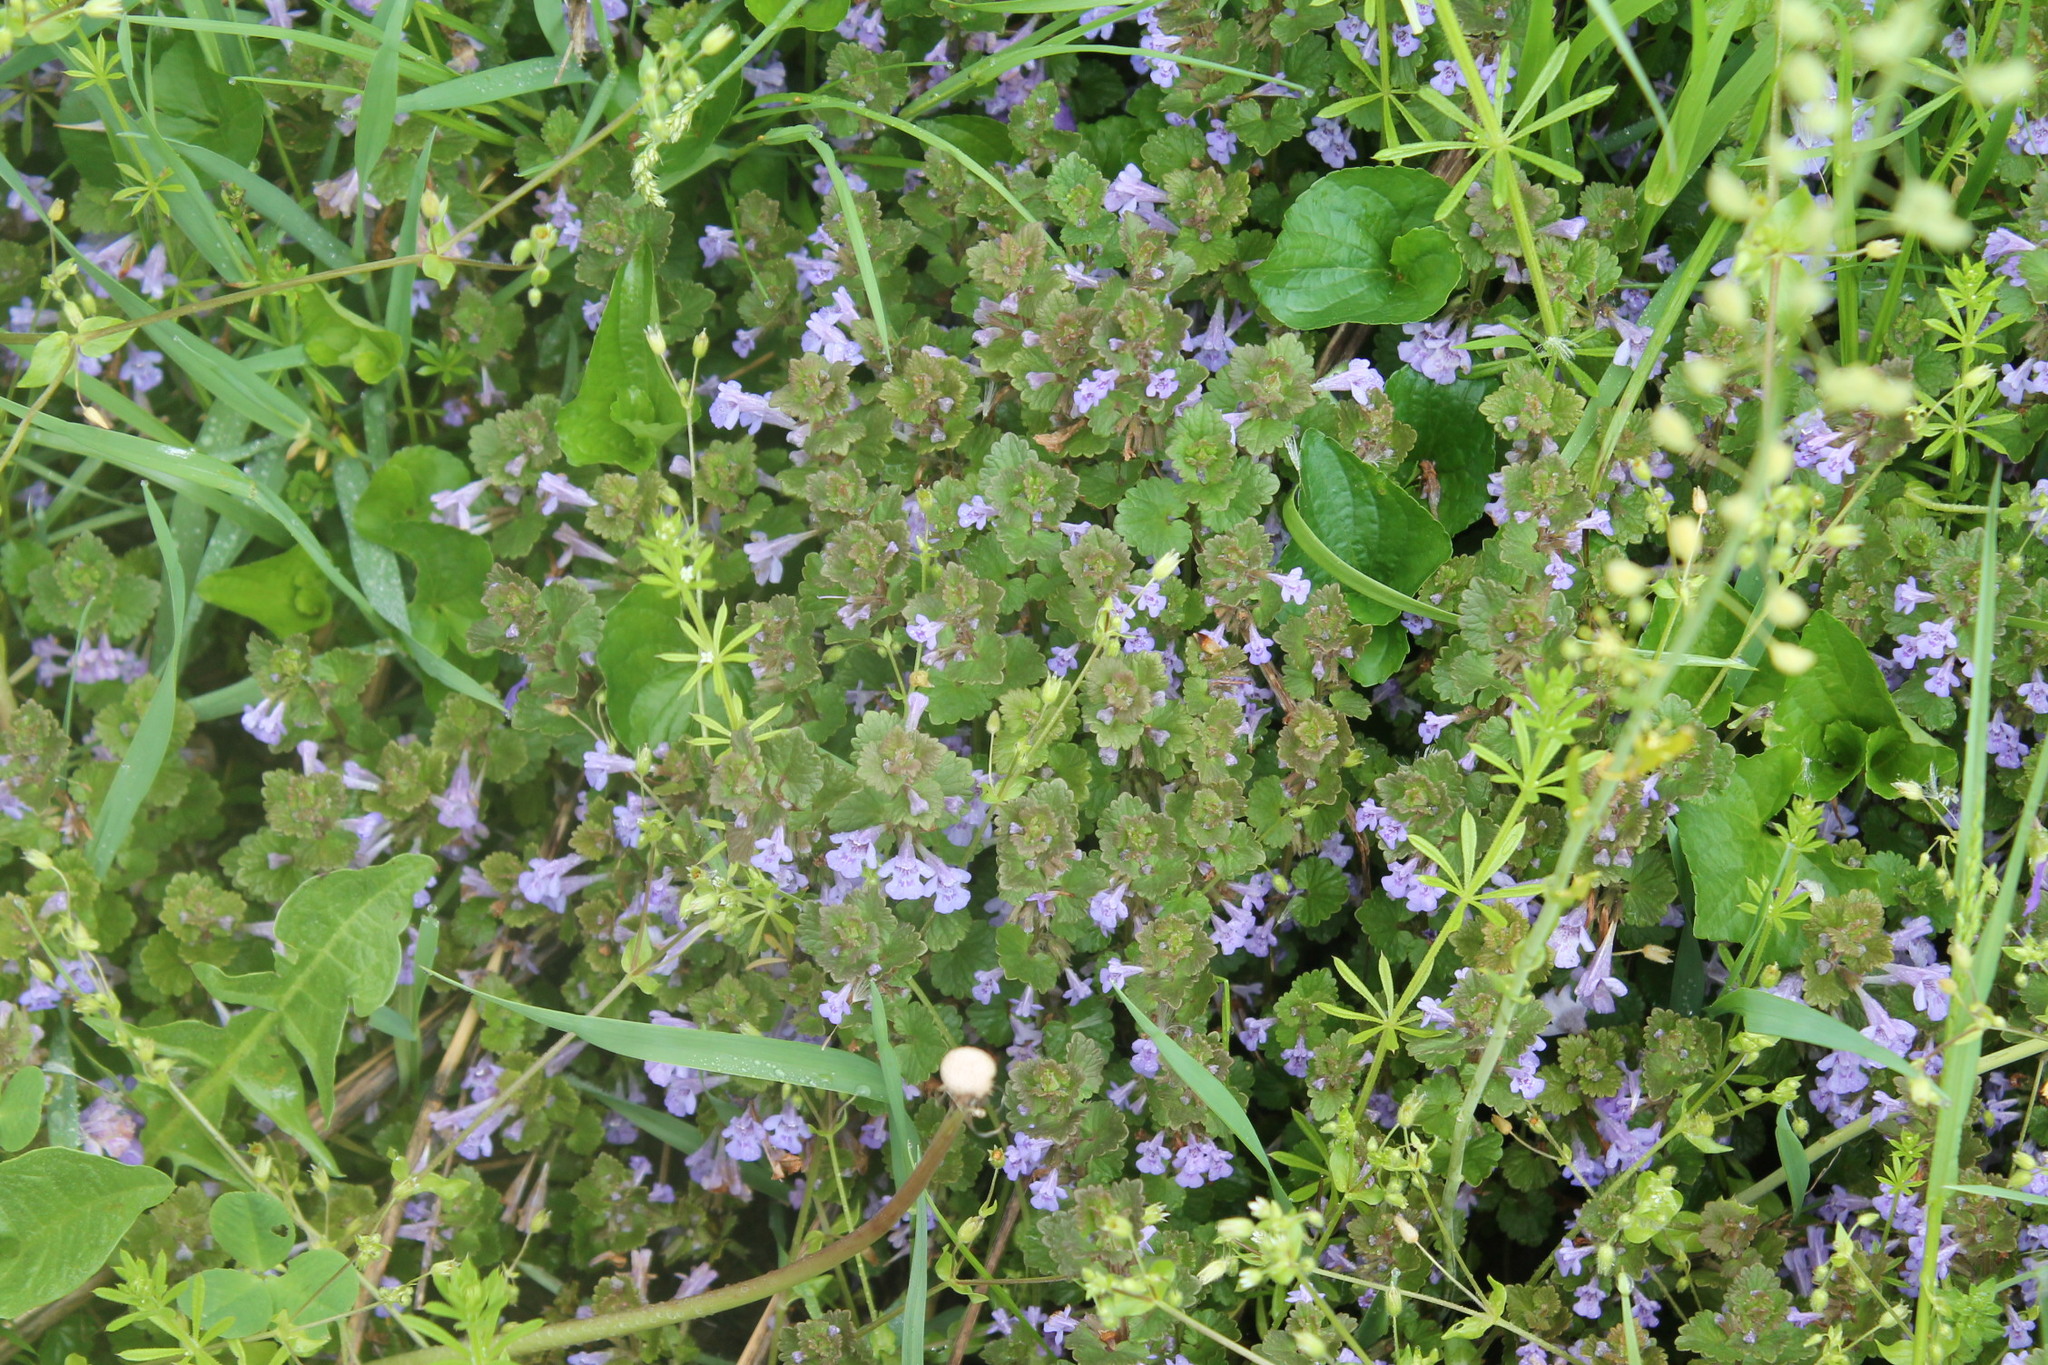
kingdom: Plantae
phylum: Tracheophyta
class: Magnoliopsida
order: Lamiales
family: Lamiaceae
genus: Glechoma
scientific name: Glechoma hederacea
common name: Ground ivy
